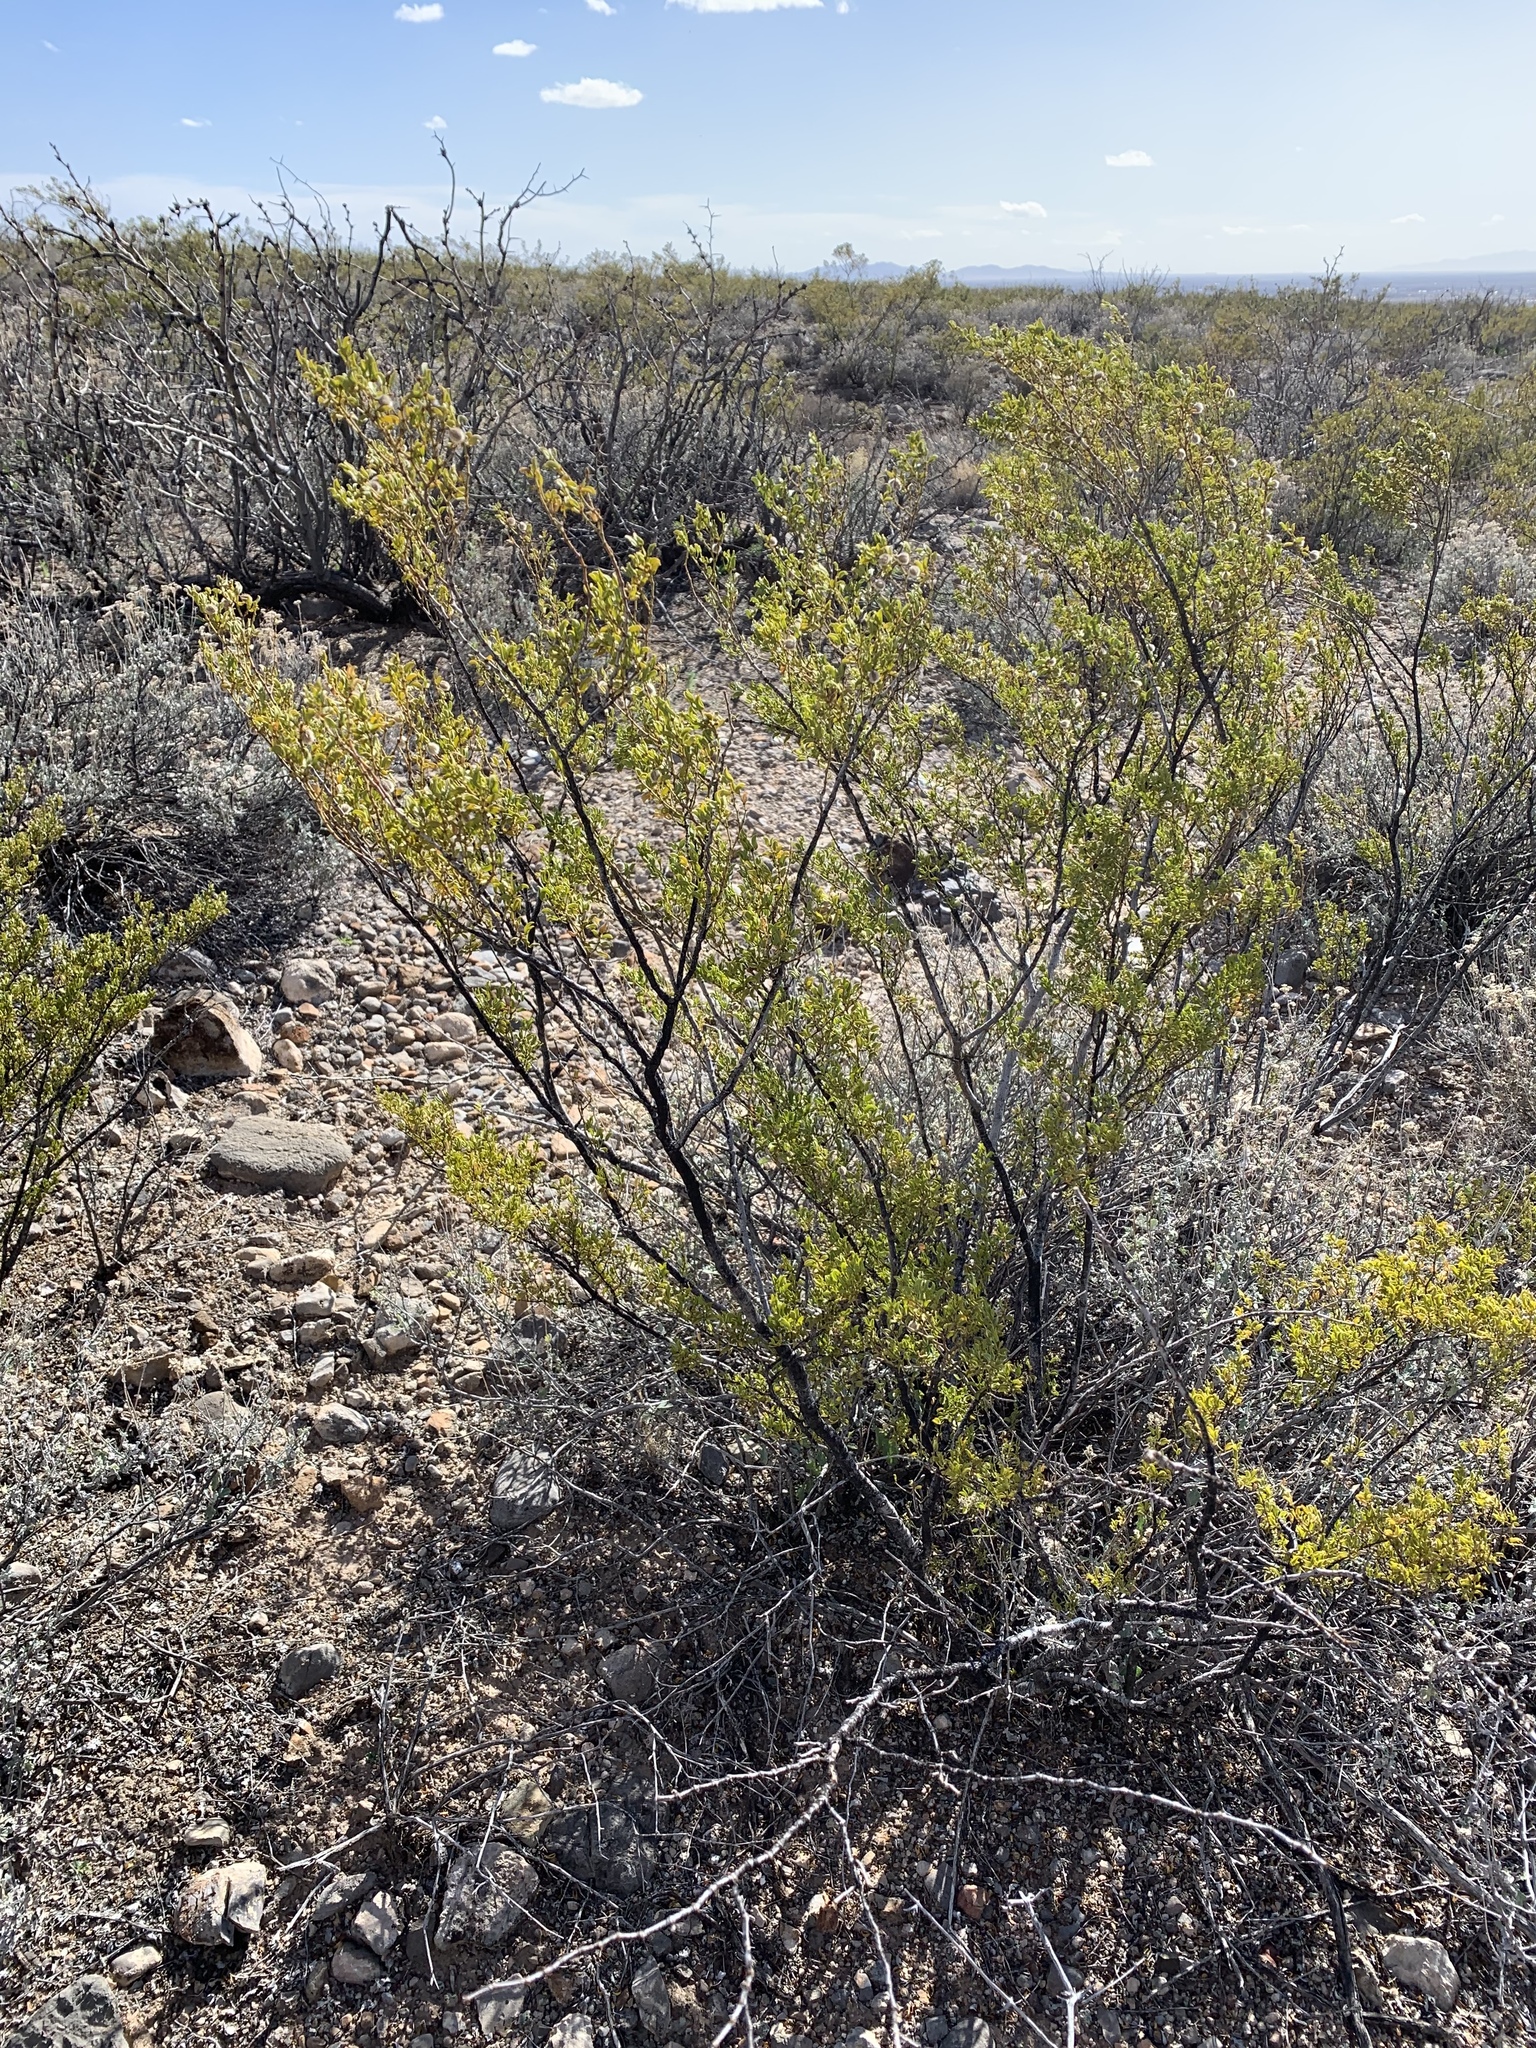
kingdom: Plantae
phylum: Tracheophyta
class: Magnoliopsida
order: Zygophyllales
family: Zygophyllaceae
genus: Larrea
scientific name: Larrea tridentata
